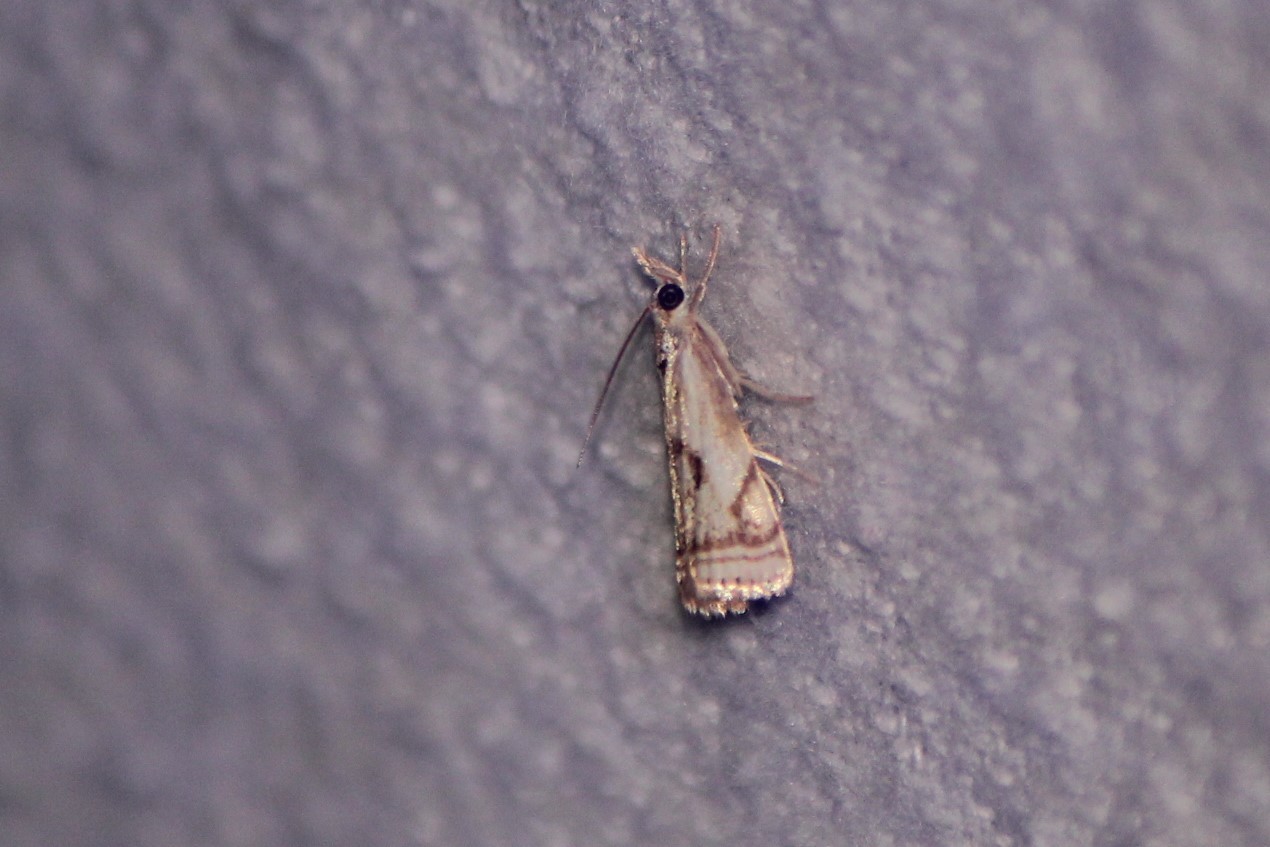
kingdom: Animalia
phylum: Arthropoda
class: Insecta
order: Lepidoptera
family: Crambidae
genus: Microcrambus
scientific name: Microcrambus elegans
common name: Elegant grass-veneer
